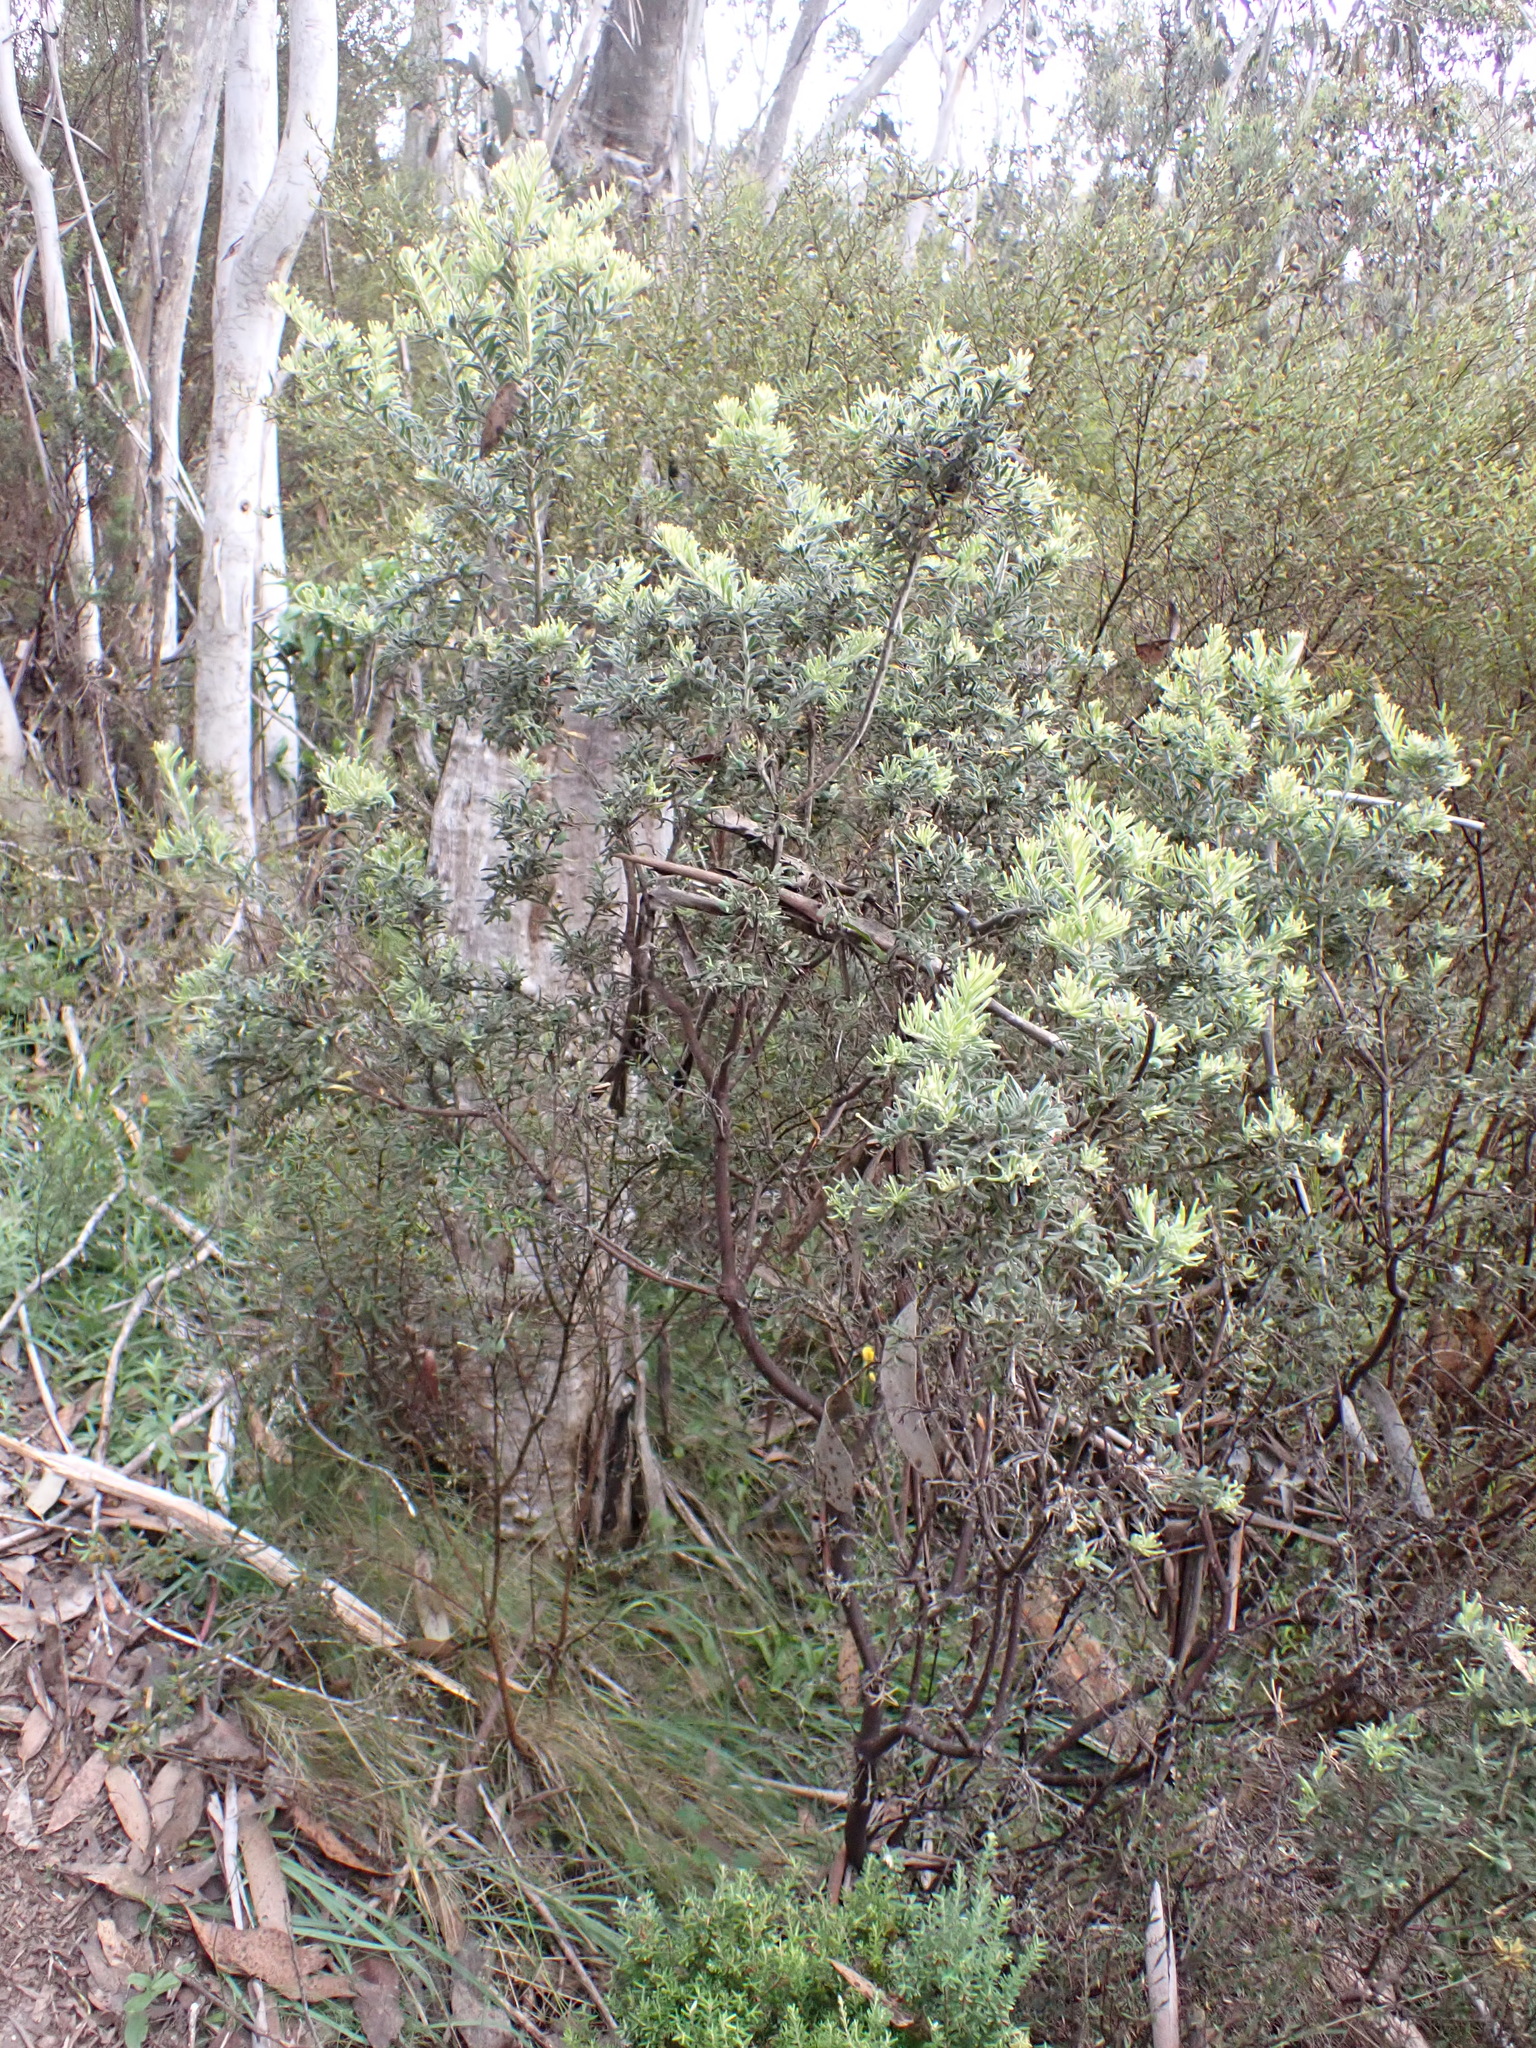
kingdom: Plantae
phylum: Tracheophyta
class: Magnoliopsida
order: Proteales
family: Proteaceae
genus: Grevillea
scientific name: Grevillea lanigera
